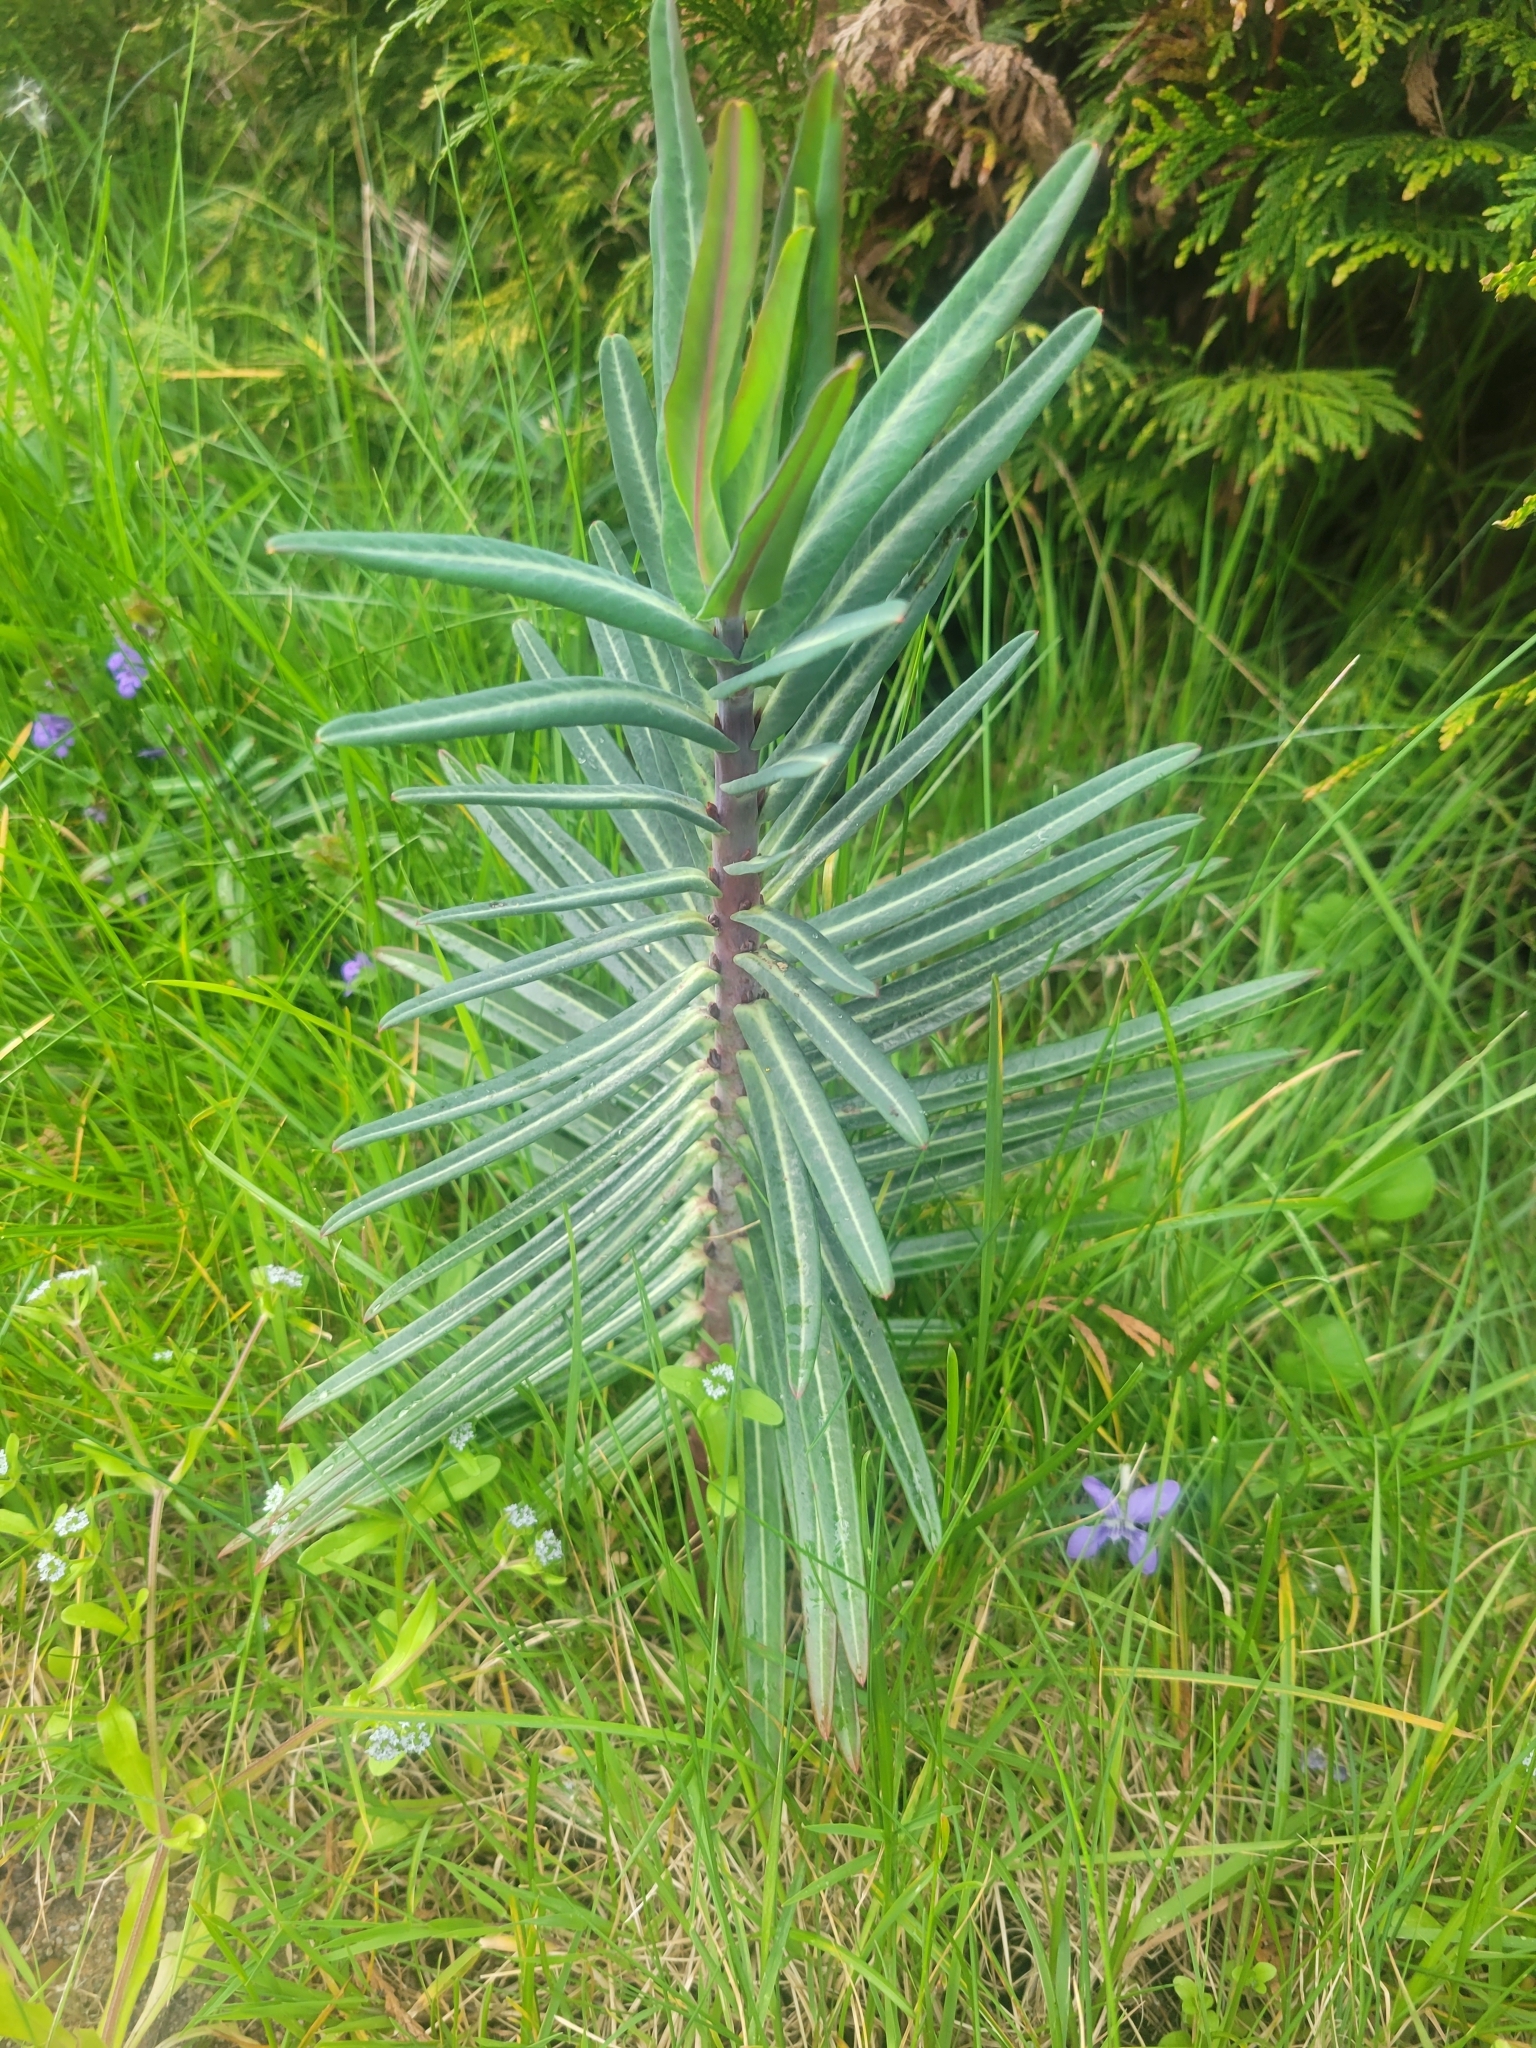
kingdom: Plantae
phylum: Tracheophyta
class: Magnoliopsida
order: Malpighiales
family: Euphorbiaceae
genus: Euphorbia
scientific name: Euphorbia lathyris
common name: Caper spurge
